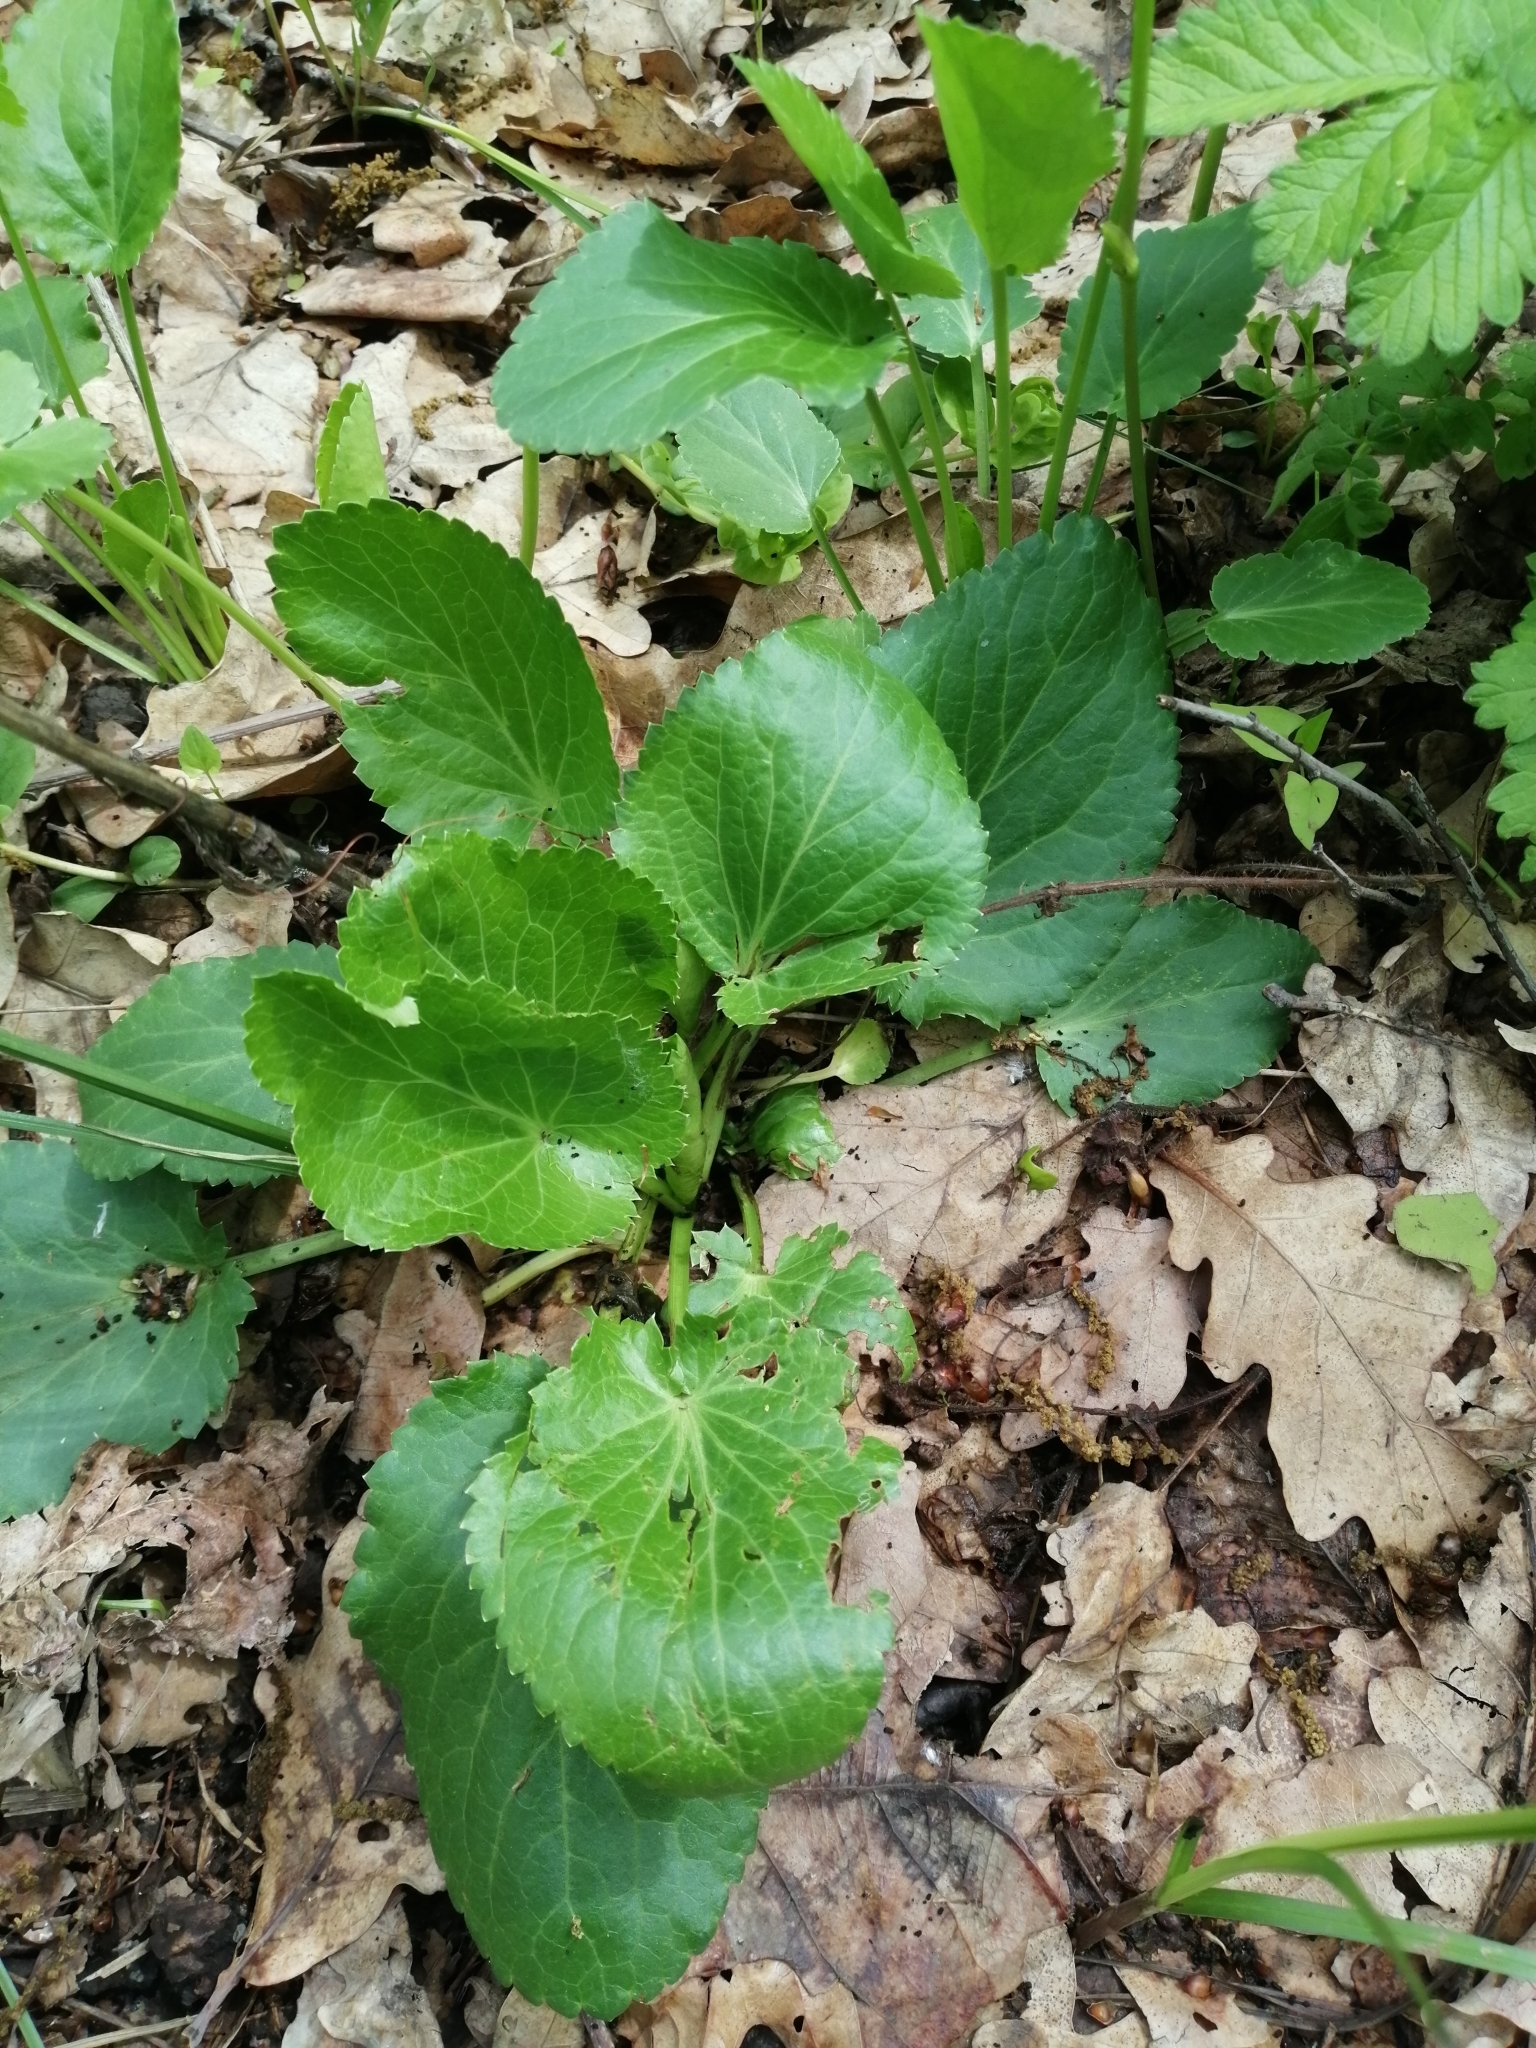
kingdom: Plantae
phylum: Tracheophyta
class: Magnoliopsida
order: Apiales
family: Apiaceae
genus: Eryngium
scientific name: Eryngium planum
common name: Blue eryngo
